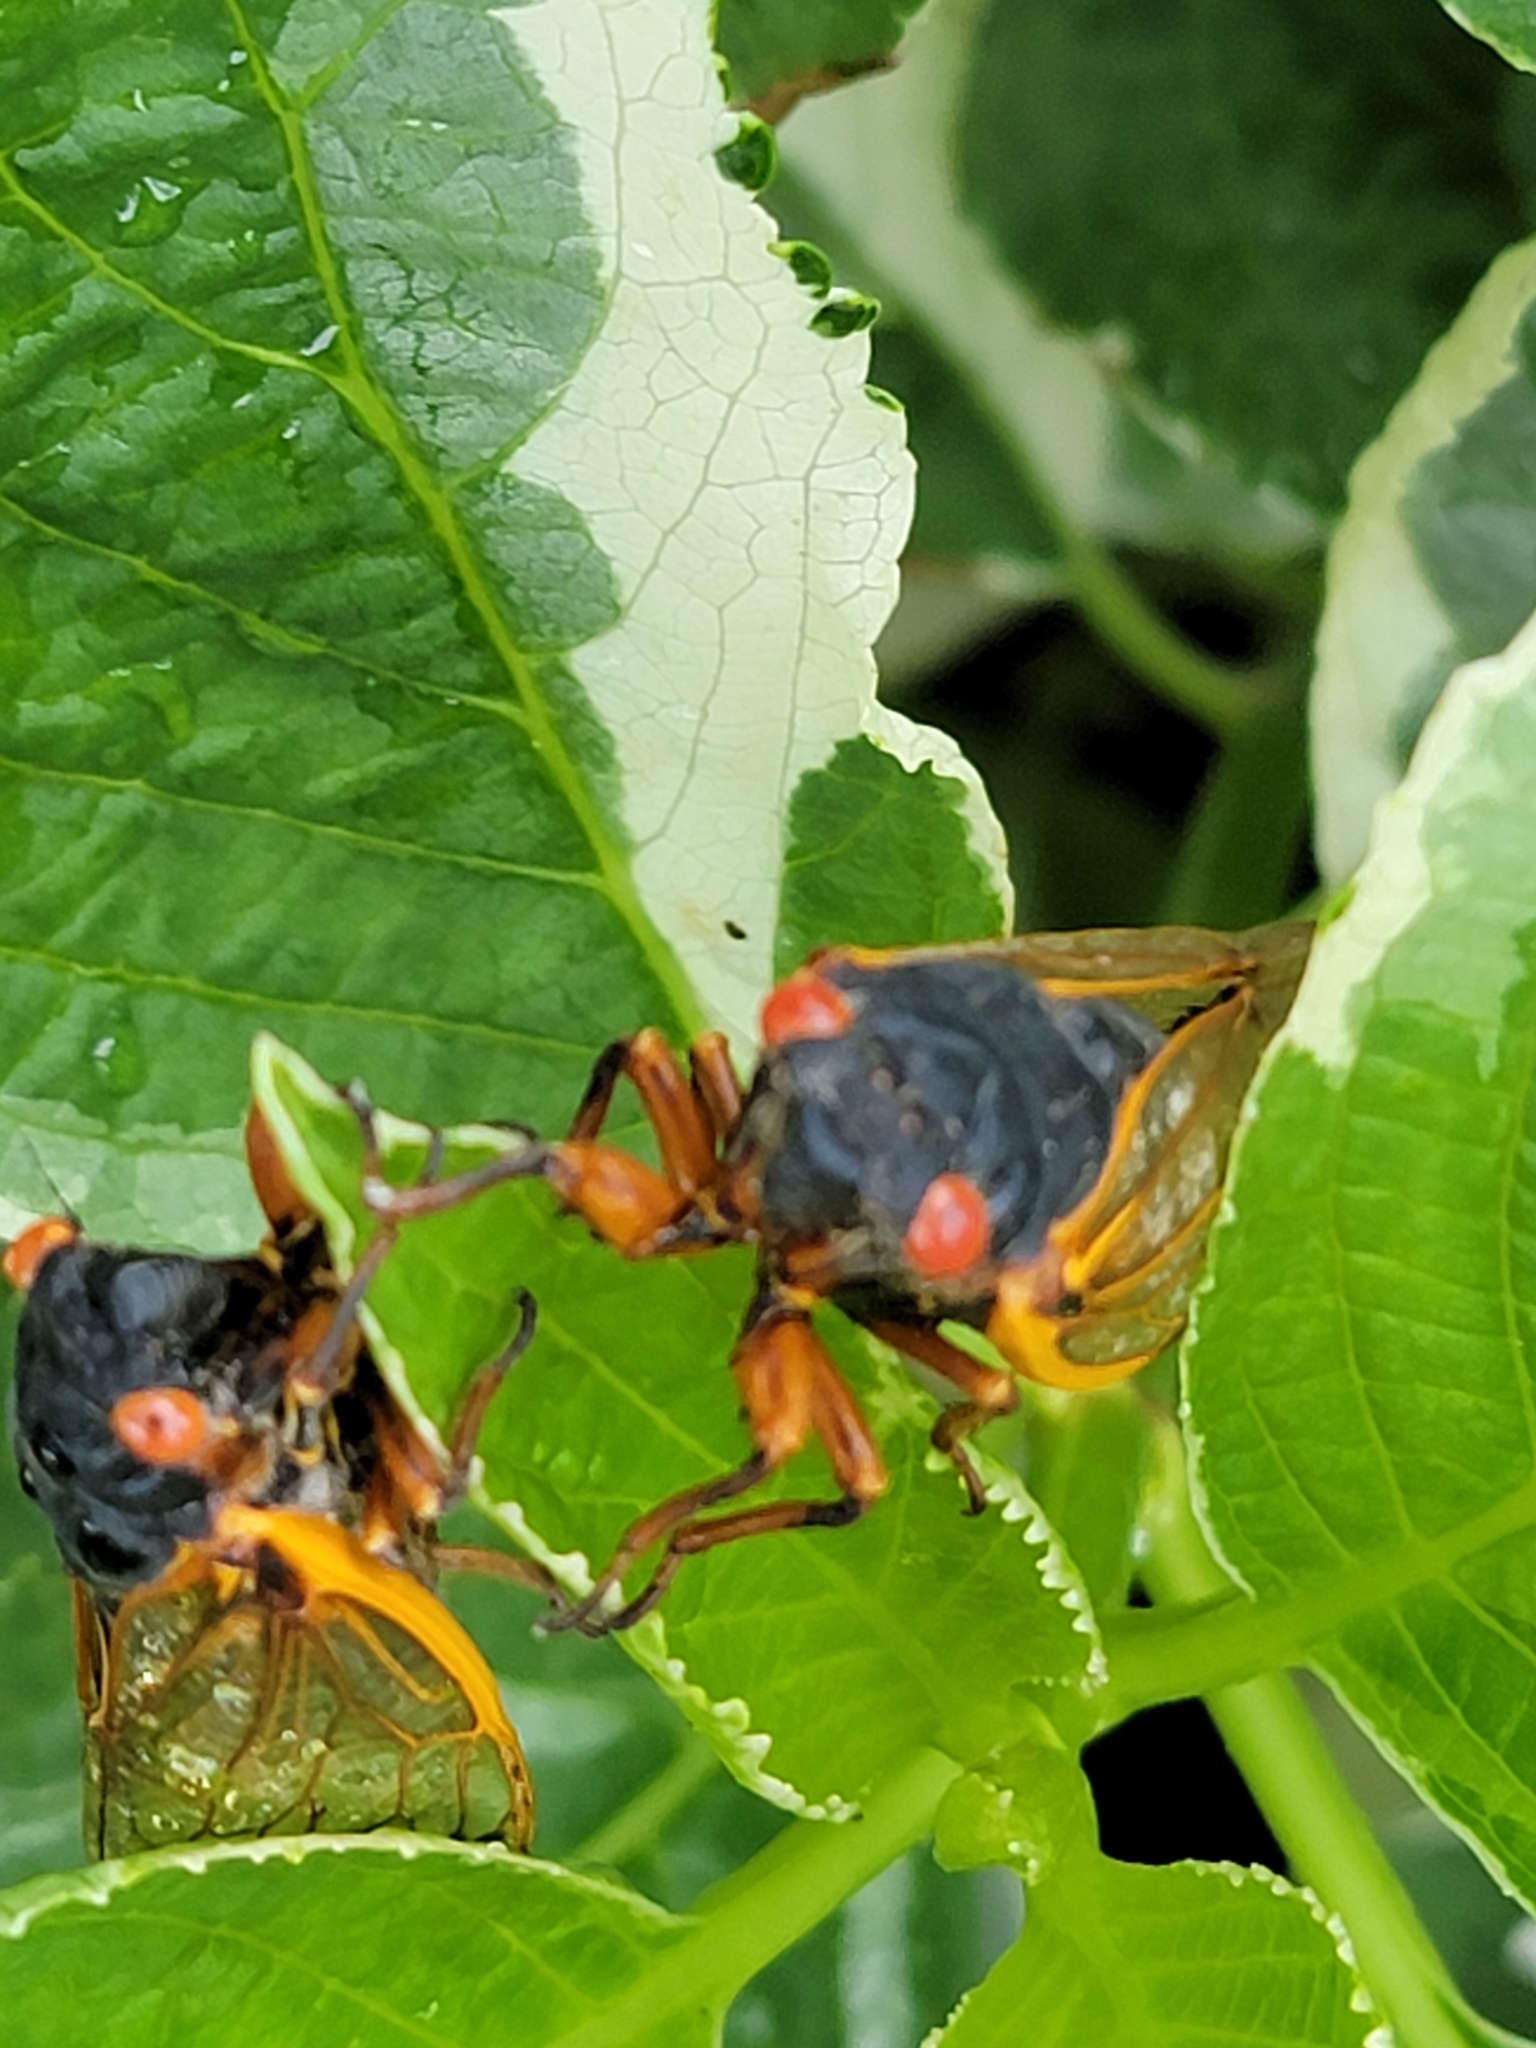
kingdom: Animalia
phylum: Arthropoda
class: Insecta
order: Hemiptera
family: Cicadidae
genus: Magicicada
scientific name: Magicicada
